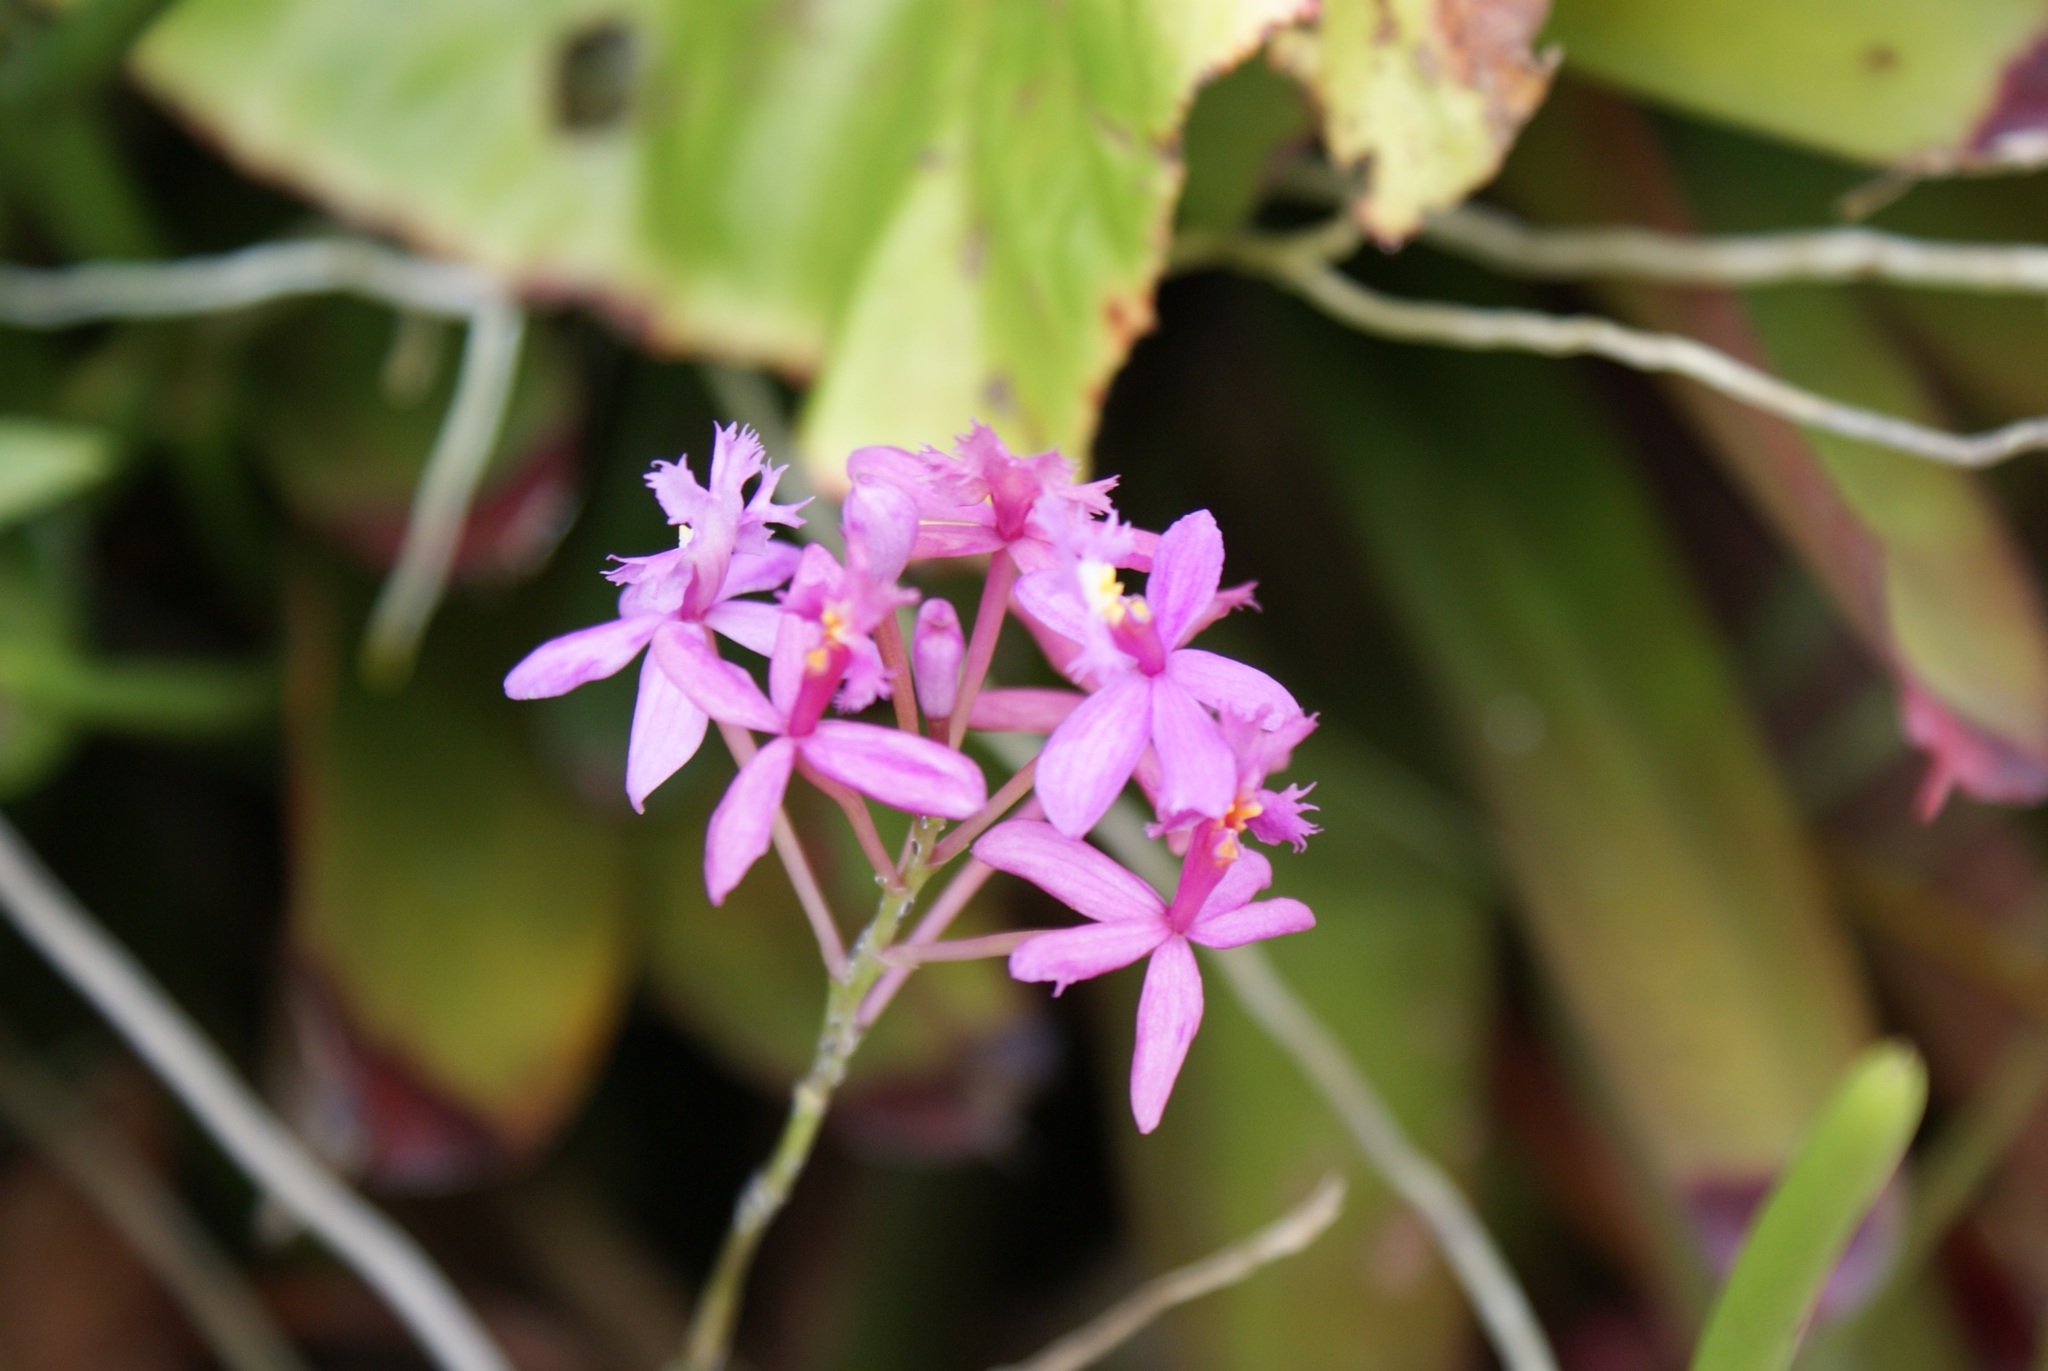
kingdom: Plantae
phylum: Tracheophyta
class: Liliopsida
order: Asparagales
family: Orchidaceae
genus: Epidendrum
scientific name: Epidendrum secundum
